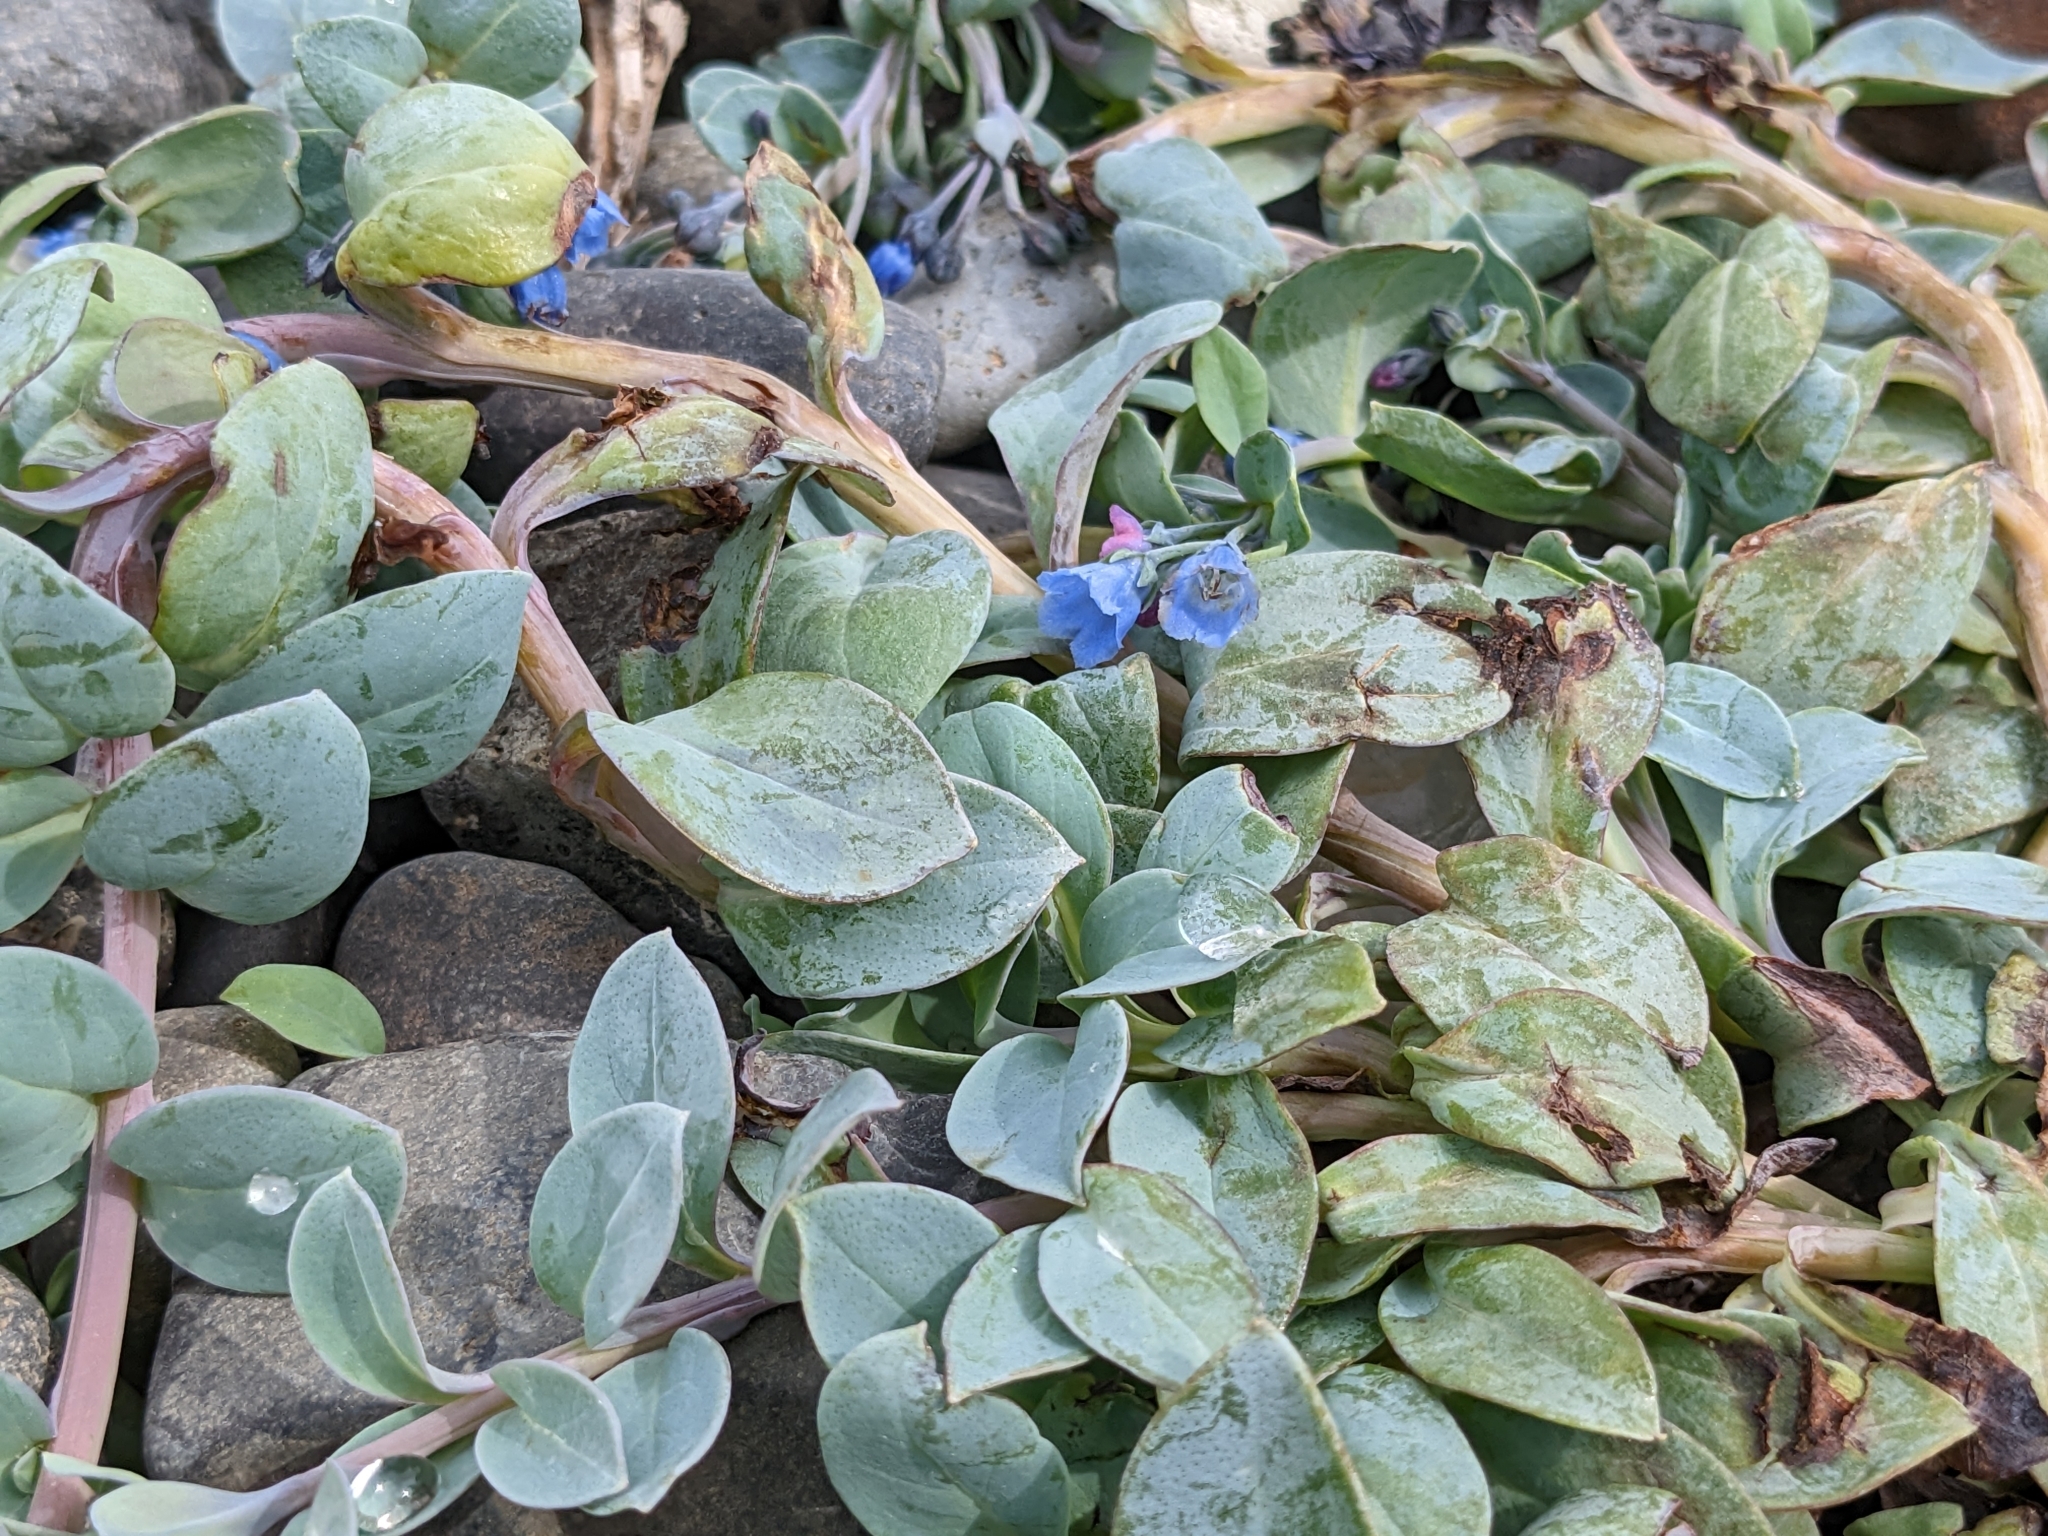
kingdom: Plantae
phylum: Tracheophyta
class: Magnoliopsida
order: Boraginales
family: Boraginaceae
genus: Mertensia
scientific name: Mertensia maritima
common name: Oysterplant
